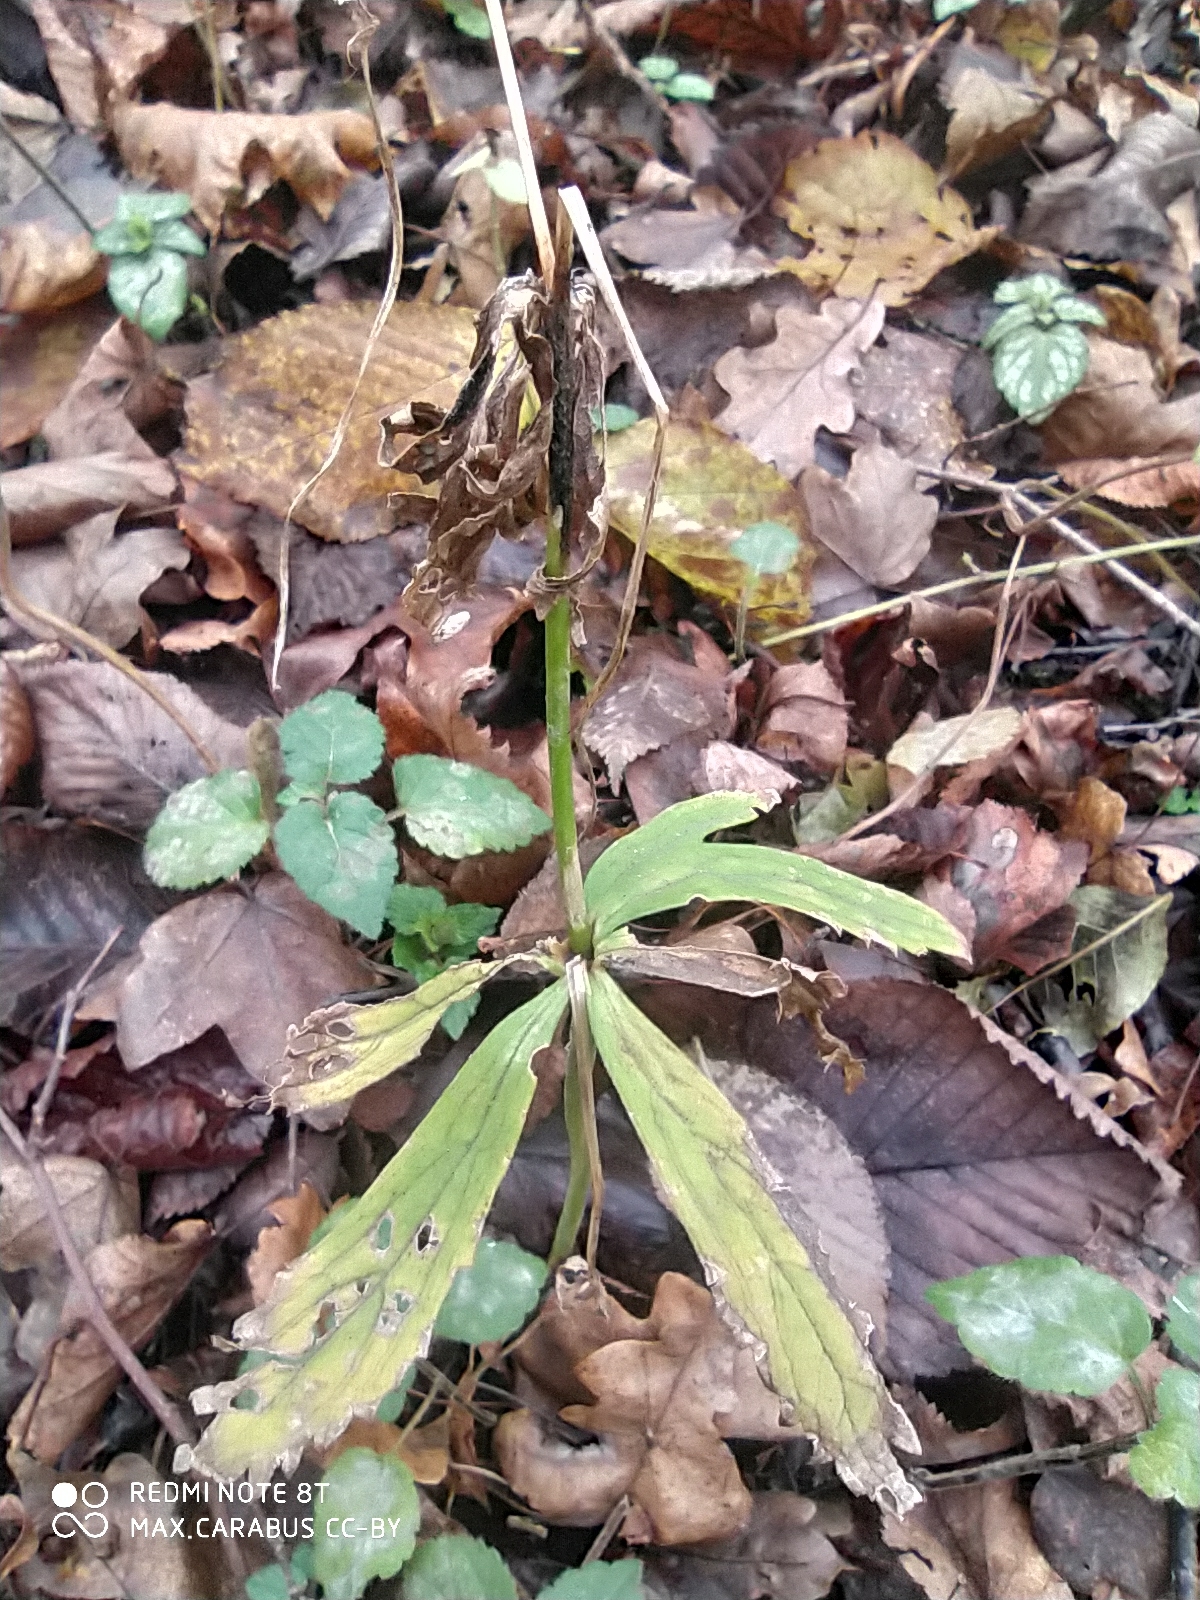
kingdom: Plantae
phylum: Tracheophyta
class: Magnoliopsida
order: Ranunculales
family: Ranunculaceae
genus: Ranunculus
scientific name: Ranunculus cassubicus
